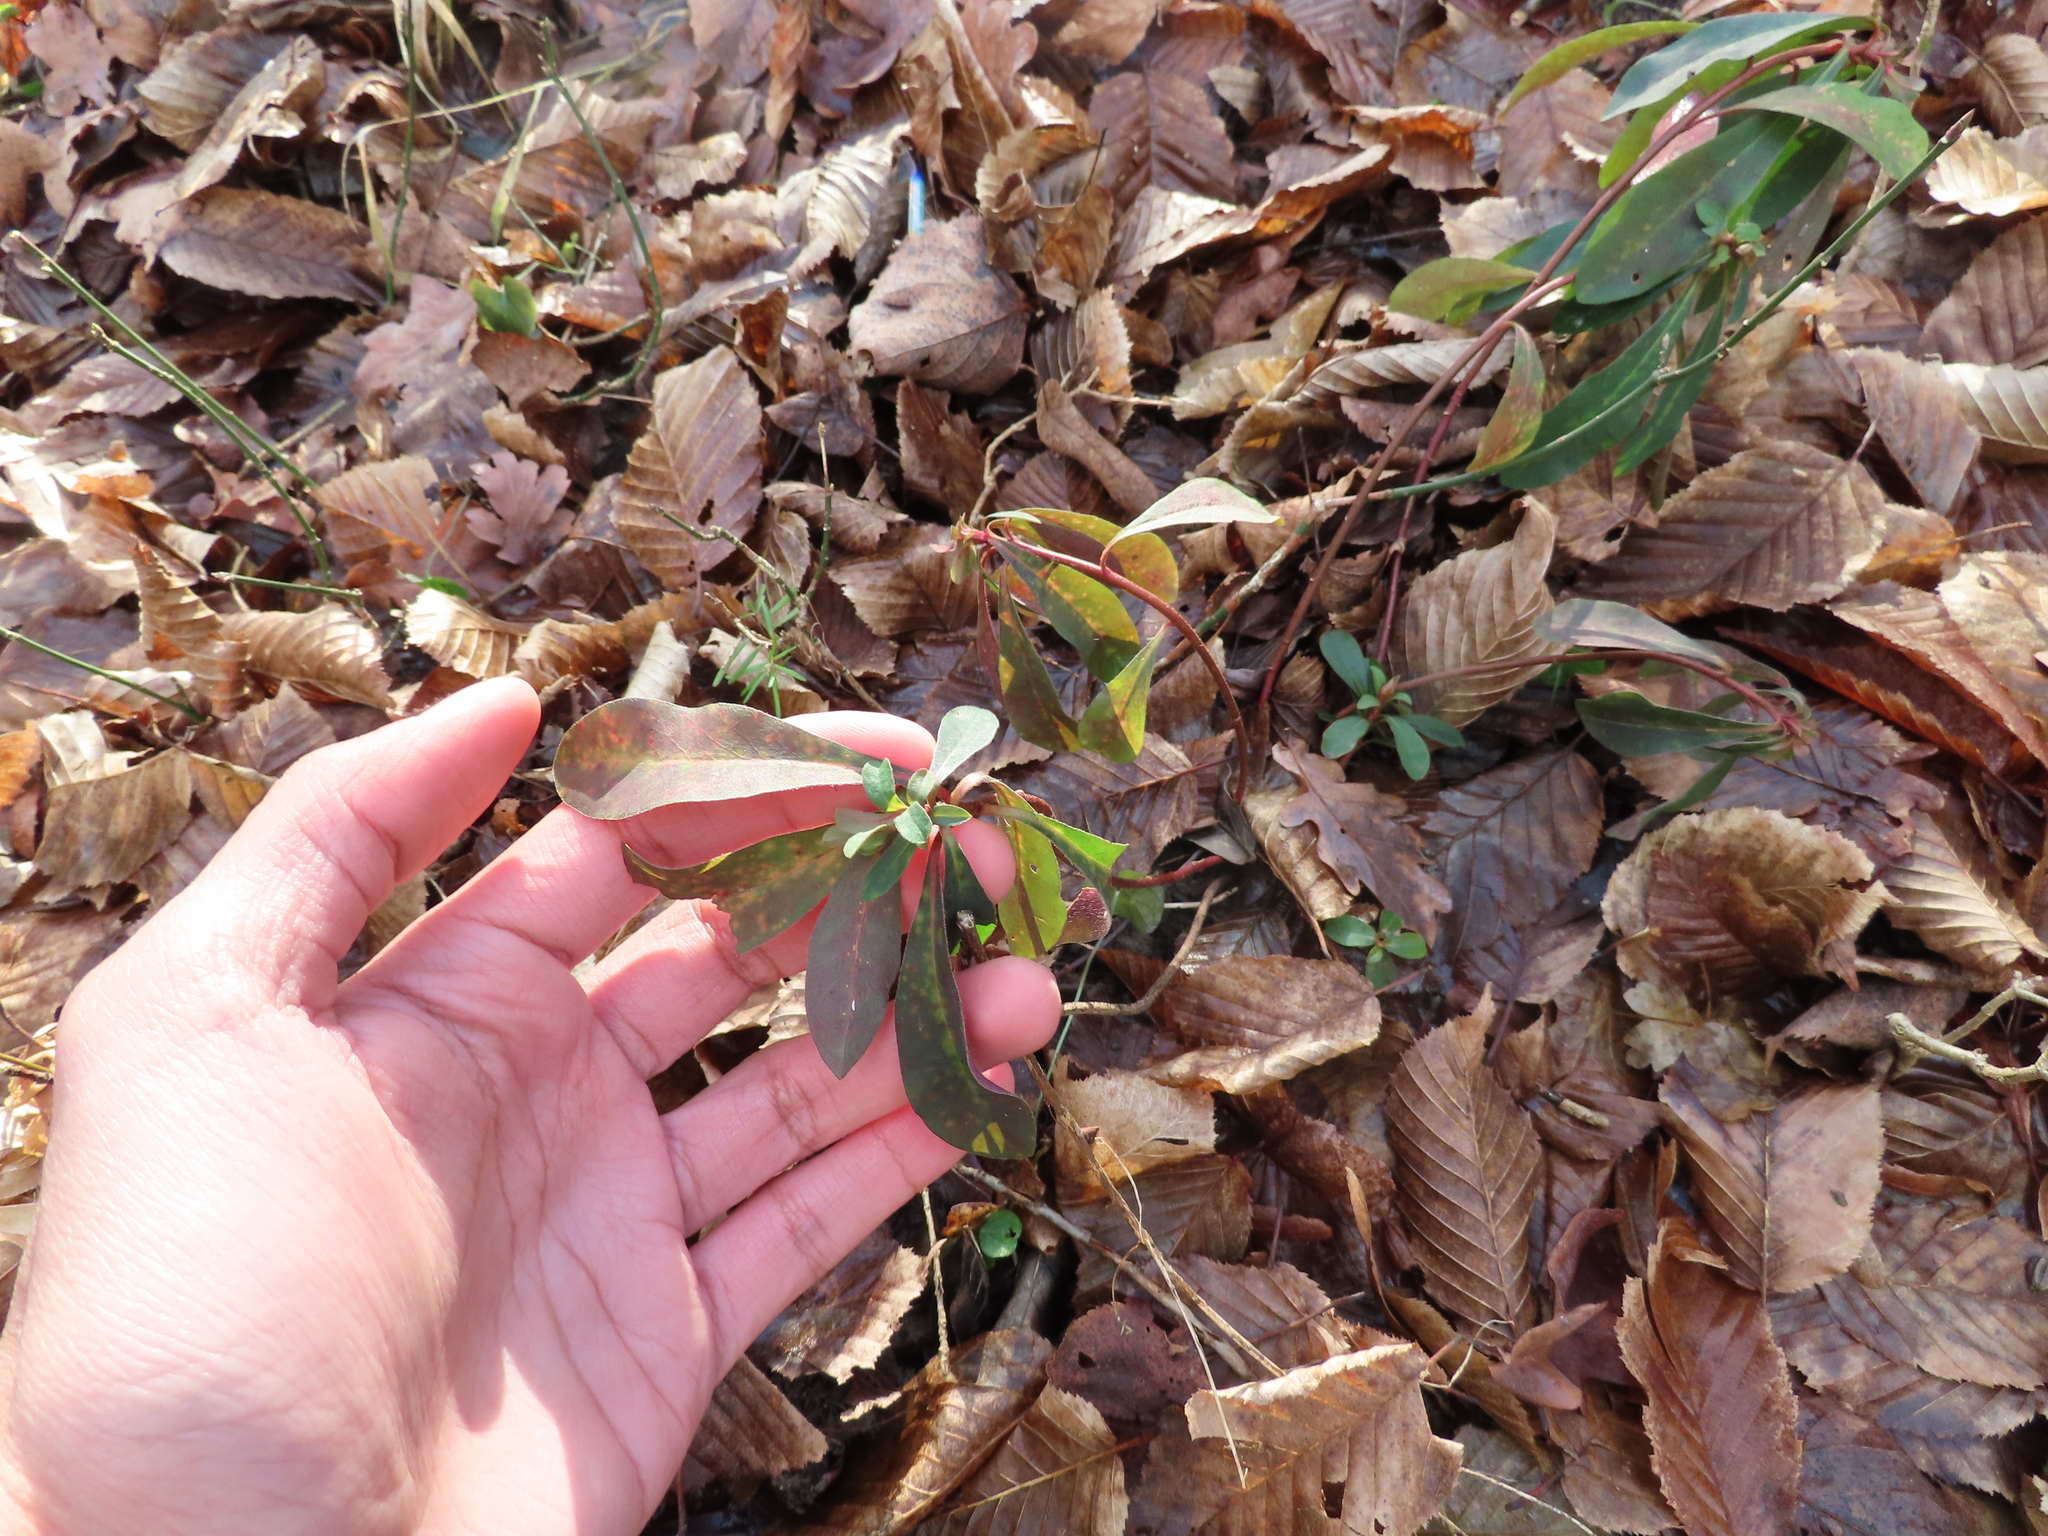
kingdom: Plantae
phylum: Tracheophyta
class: Magnoliopsida
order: Malpighiales
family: Euphorbiaceae
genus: Euphorbia
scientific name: Euphorbia amygdaloides
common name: Wood spurge
